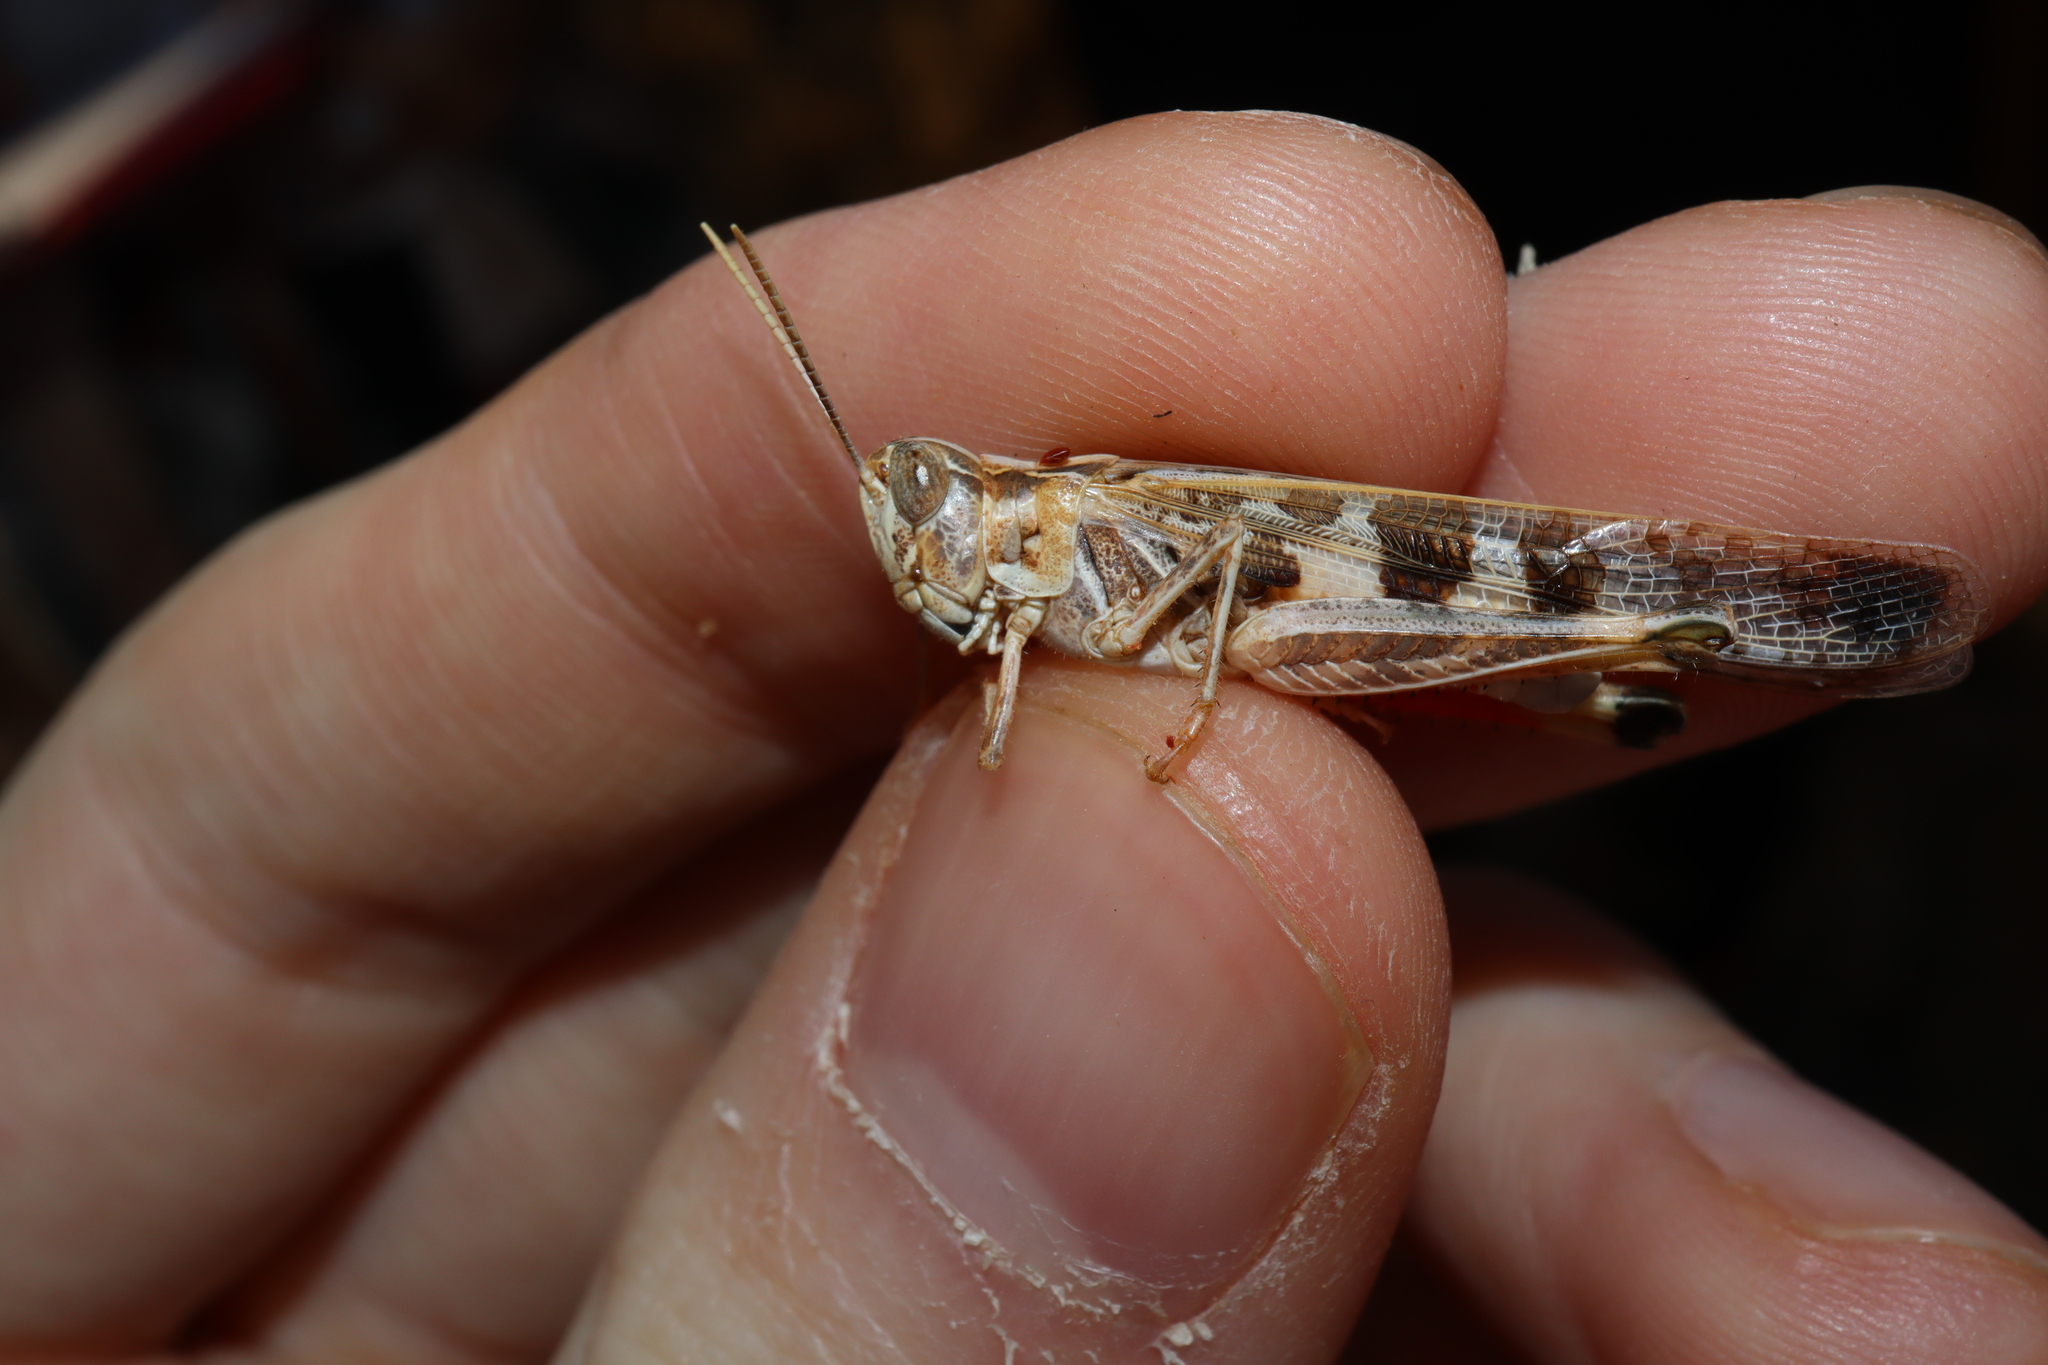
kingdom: Animalia
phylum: Arthropoda
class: Insecta
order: Orthoptera
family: Acrididae
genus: Chortoicetes
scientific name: Chortoicetes terminifera
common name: Australian plague locust
